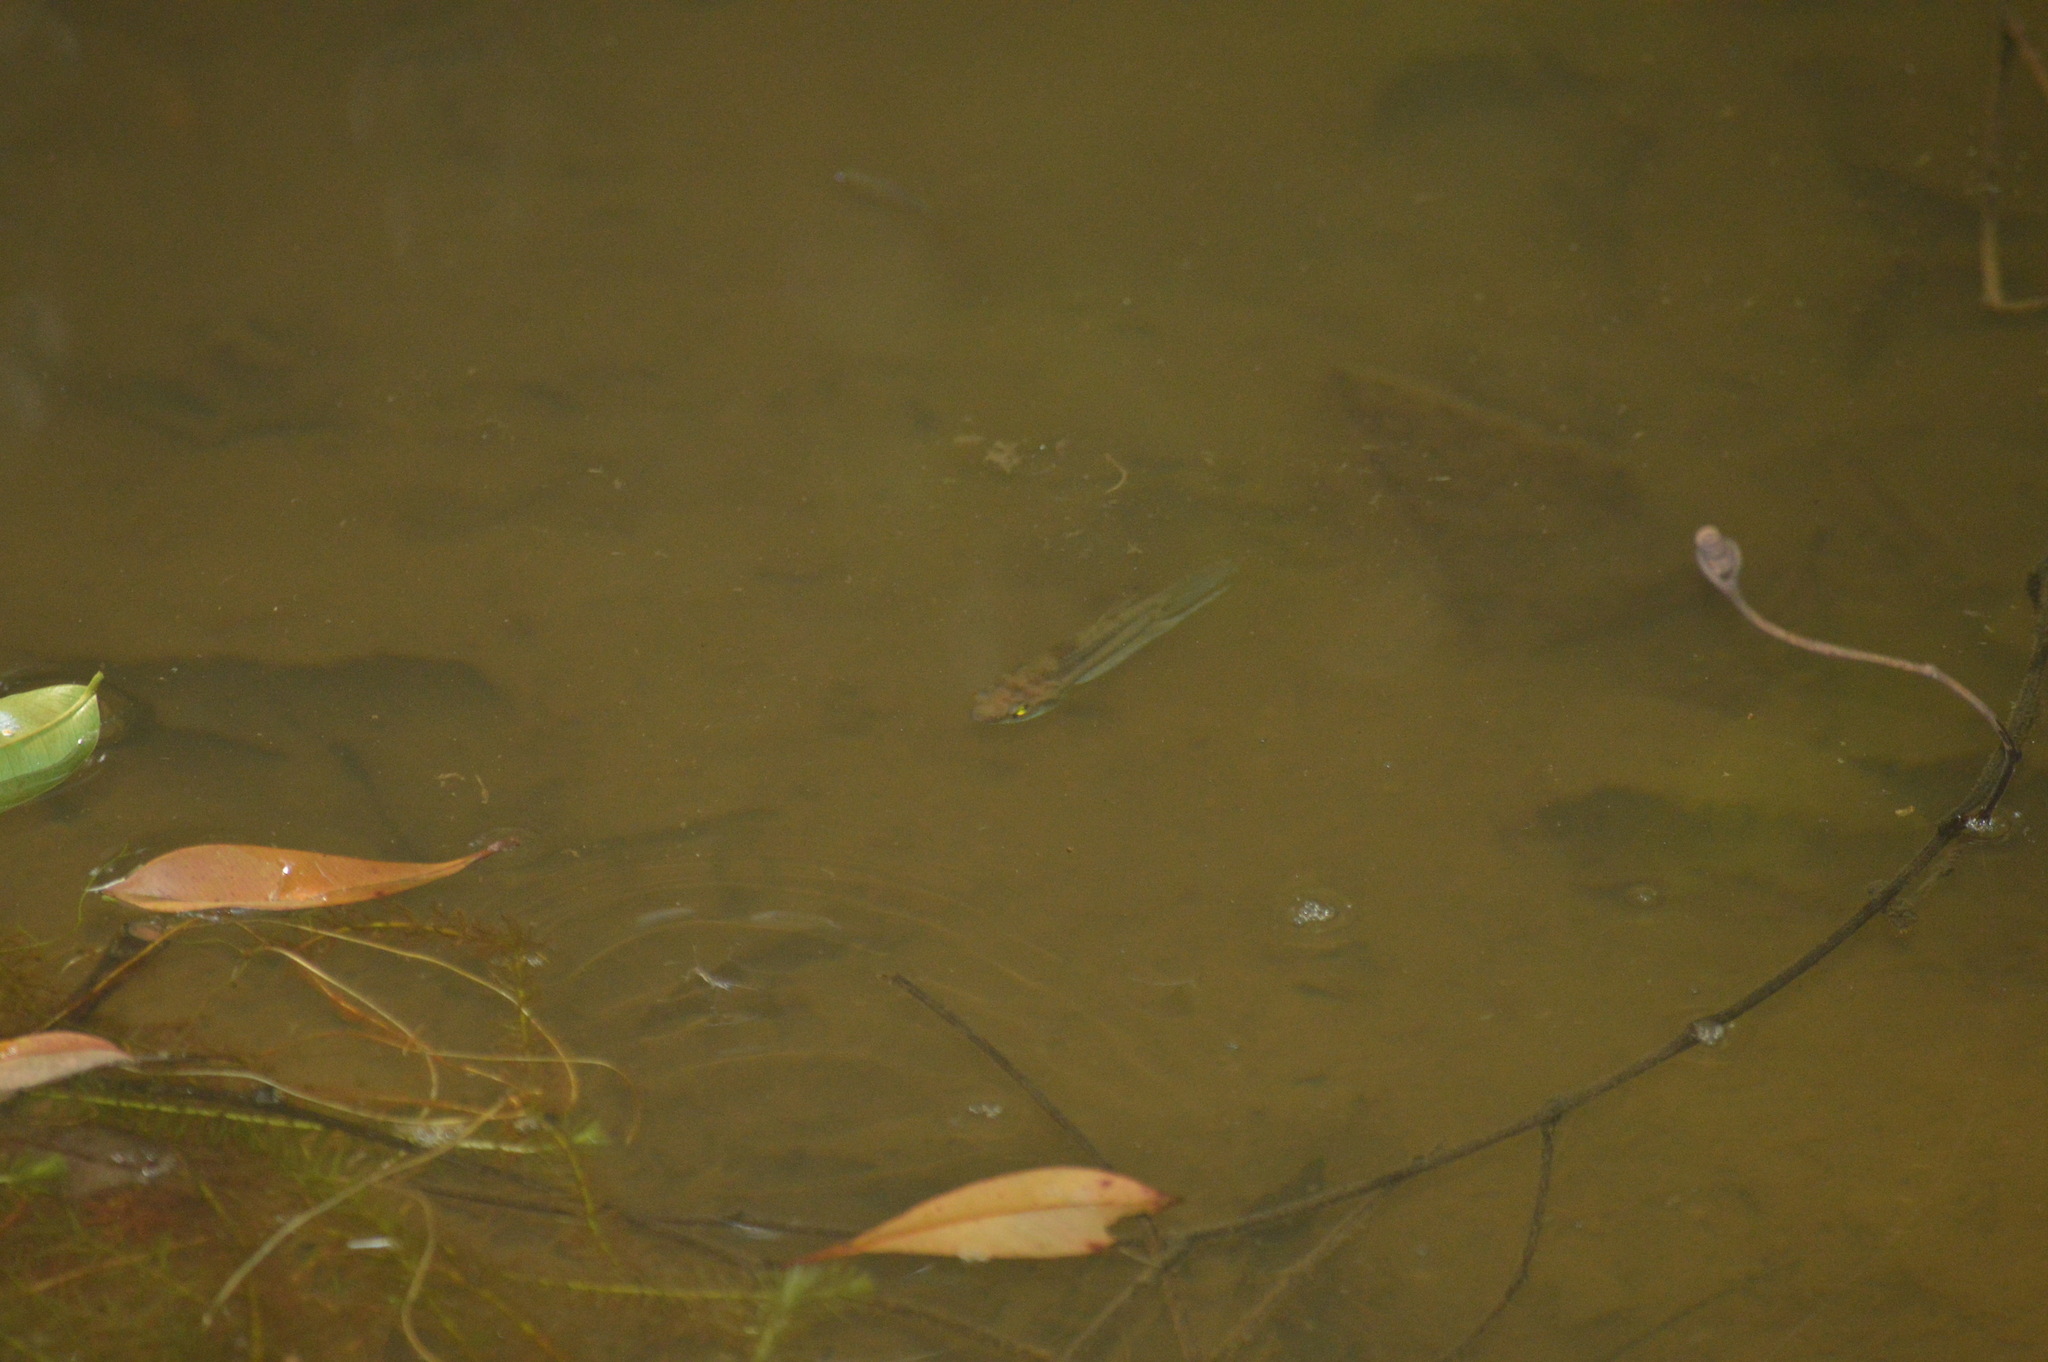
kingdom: Animalia
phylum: Chordata
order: Perciformes
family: Osphronemidae
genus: Betta
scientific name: Betta pugnax
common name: Penang betta
